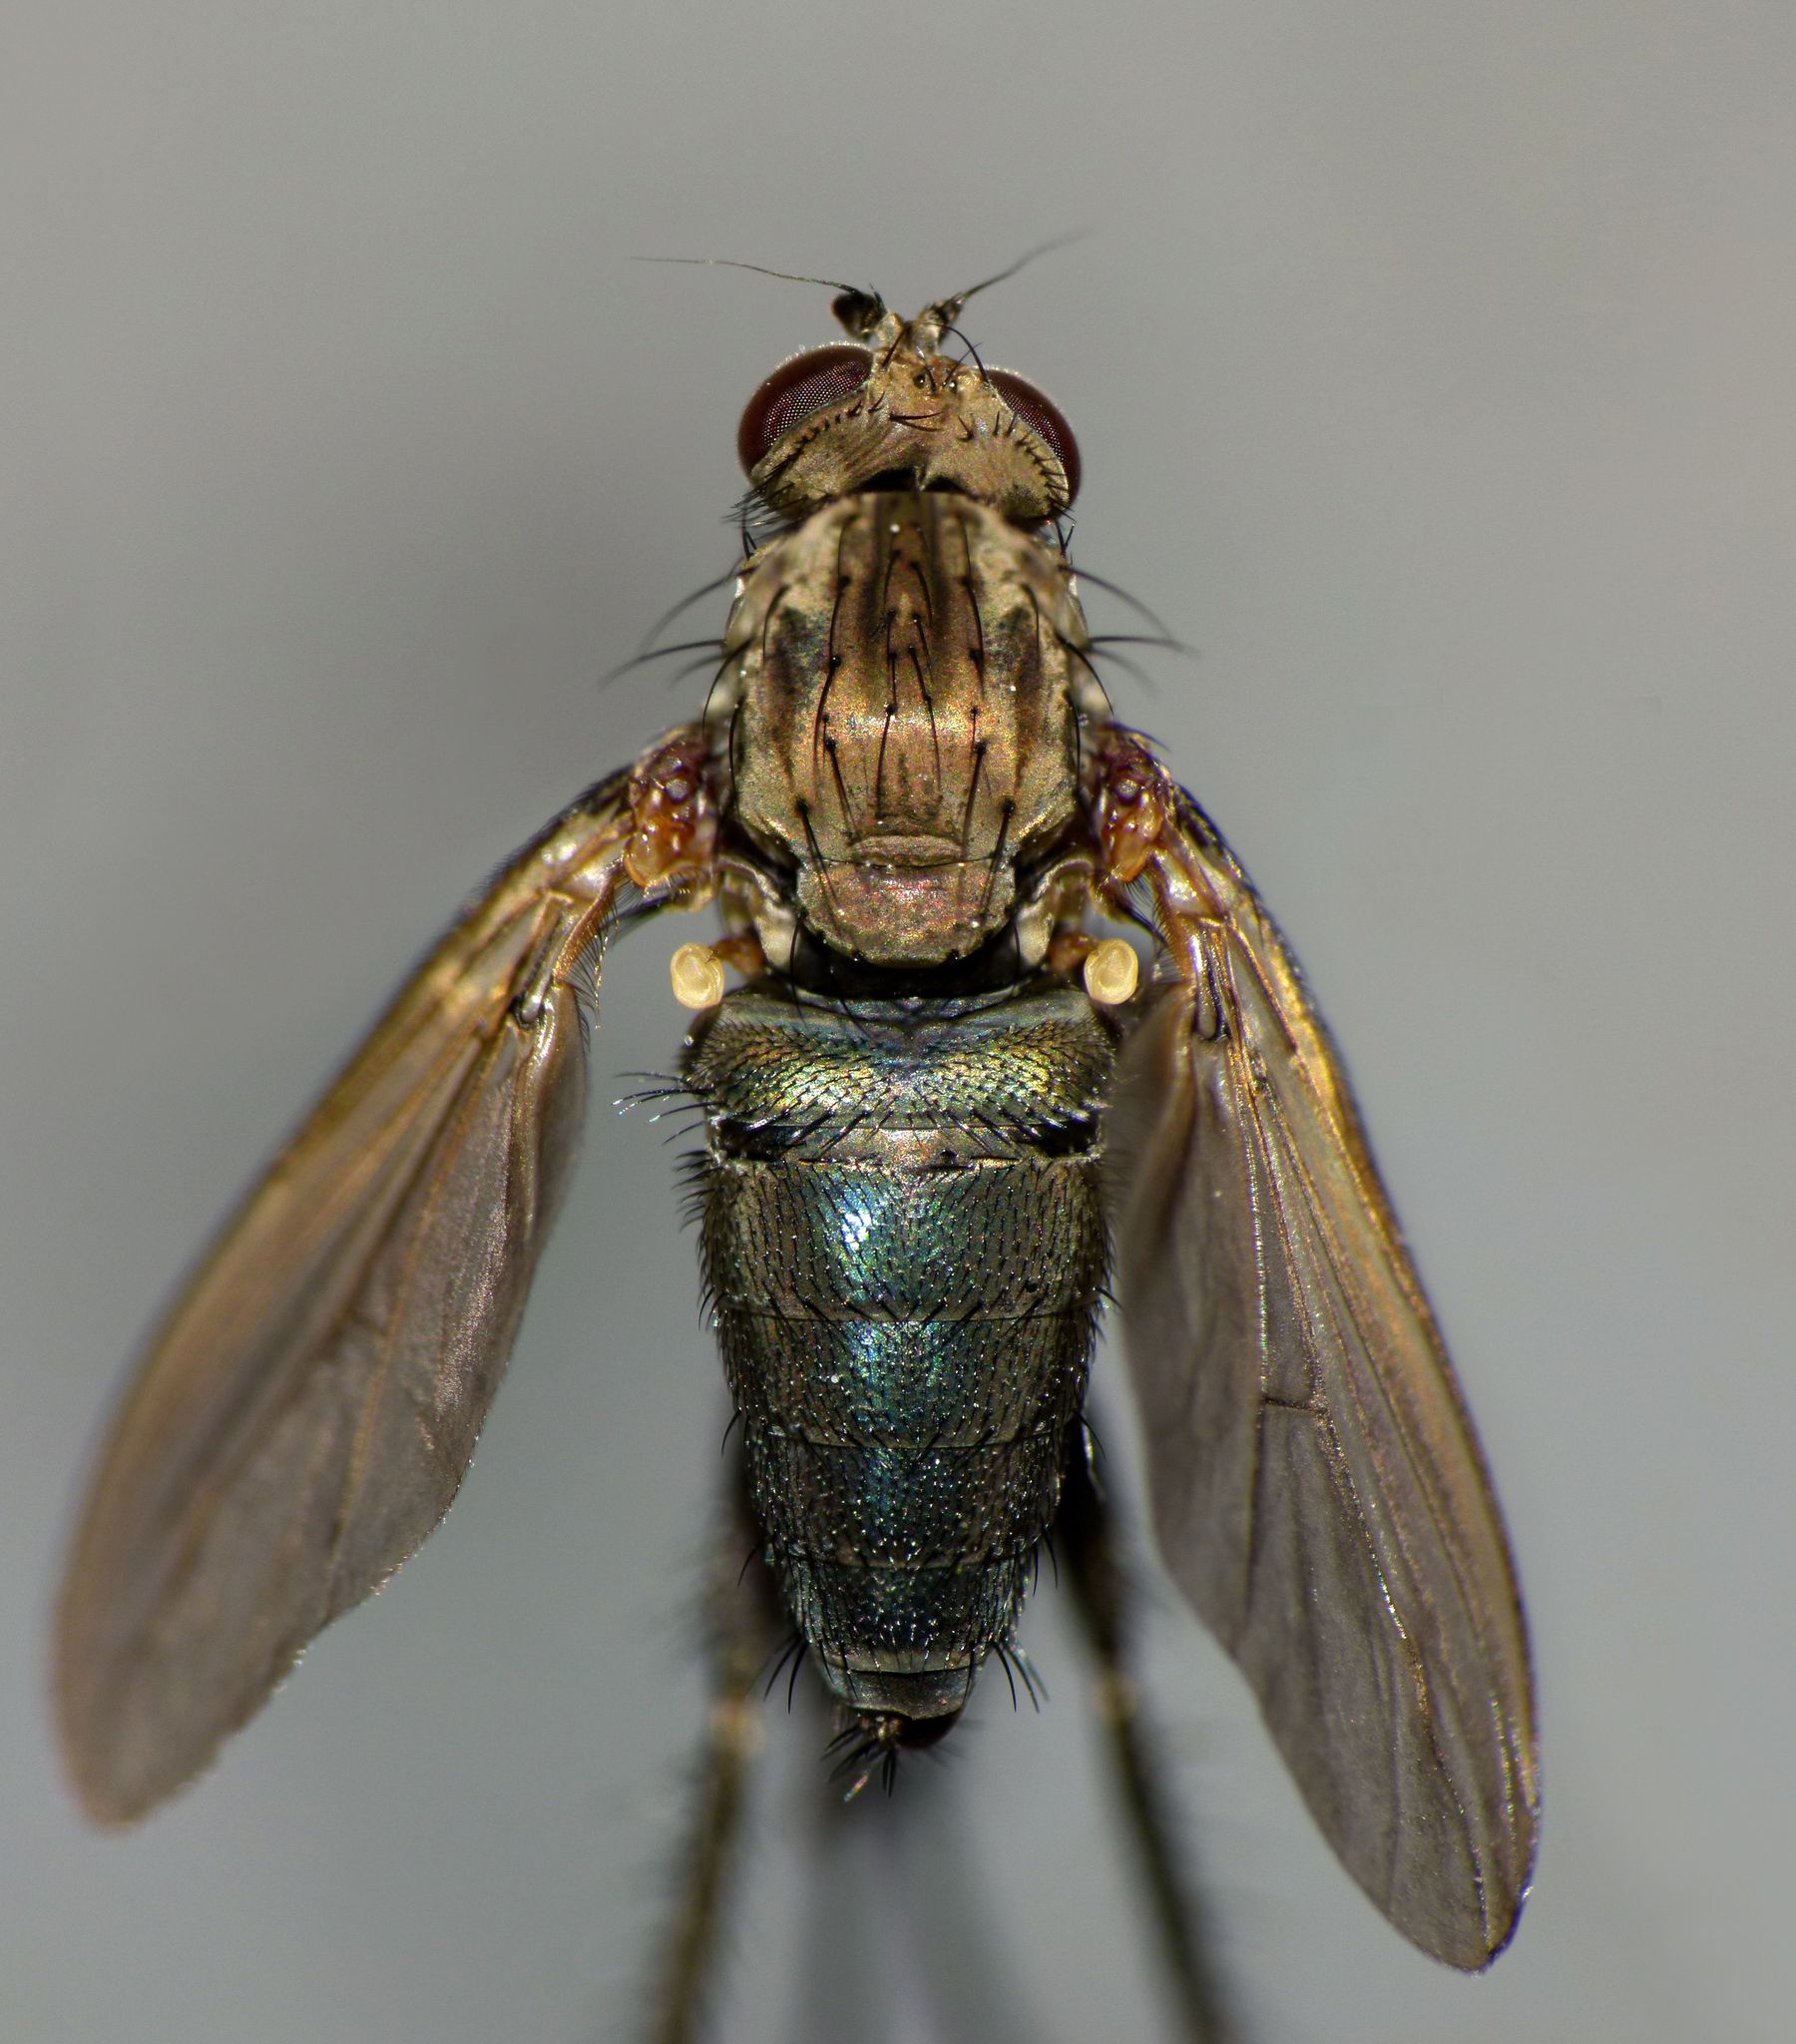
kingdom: Animalia
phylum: Arthropoda
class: Insecta
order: Diptera
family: Dolichopodidae
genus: Ostenia
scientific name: Ostenia robusta
